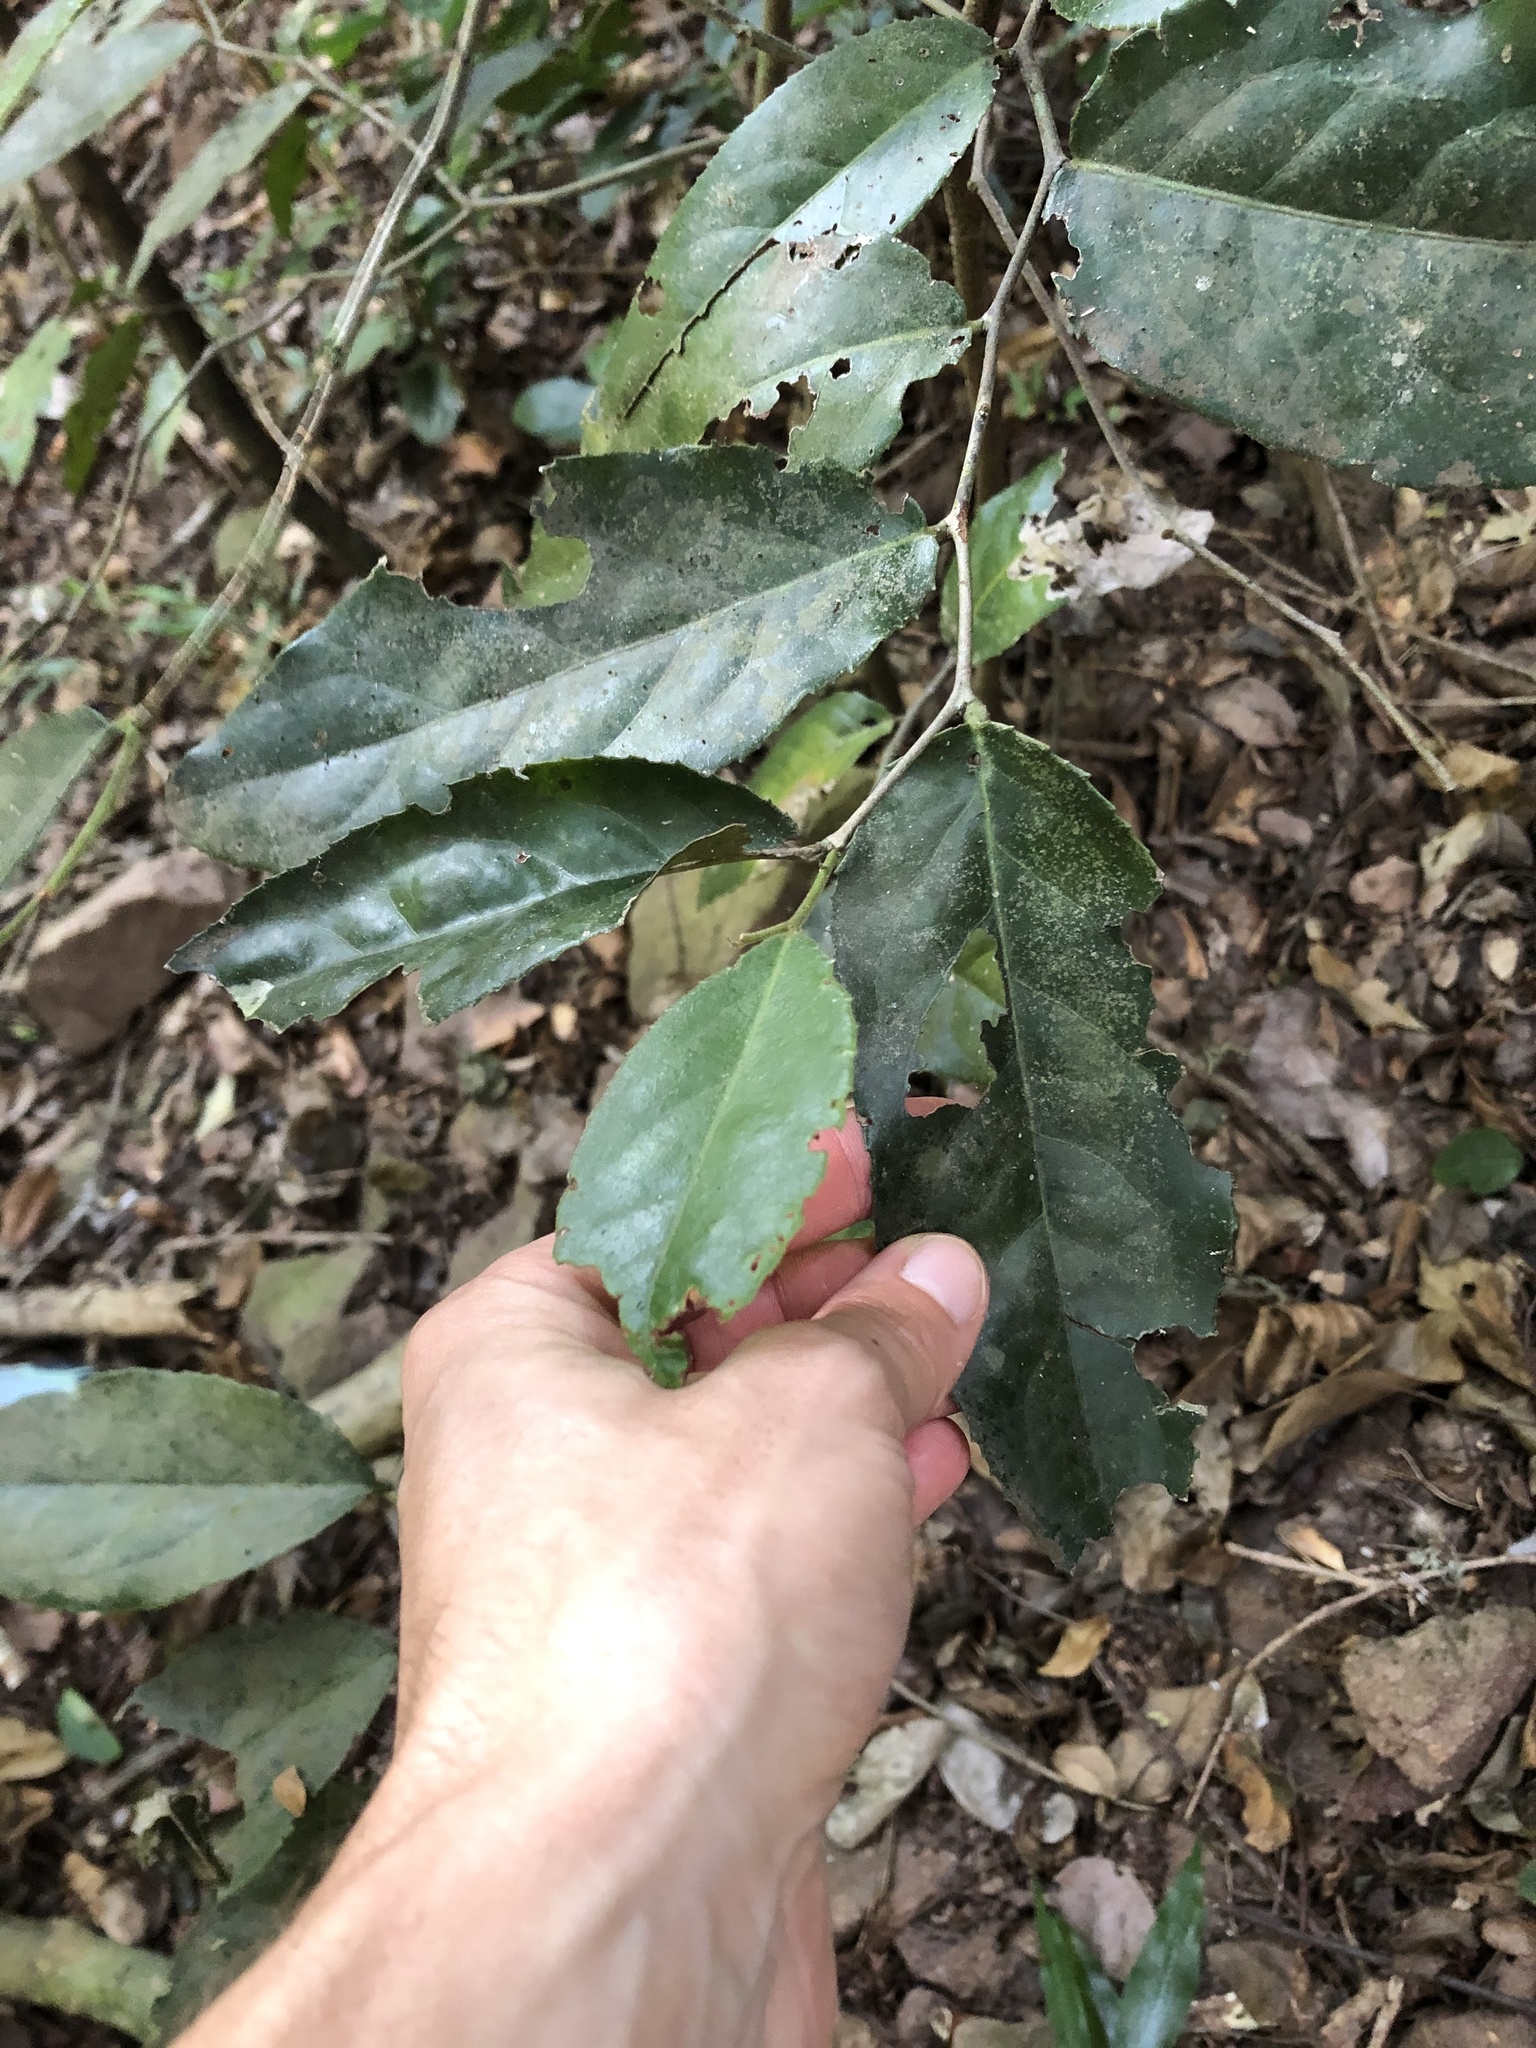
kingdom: Plantae
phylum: Tracheophyta
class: Magnoliopsida
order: Celastrales
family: Celastraceae
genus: Mystroxylon
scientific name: Mystroxylon aethiopicum
